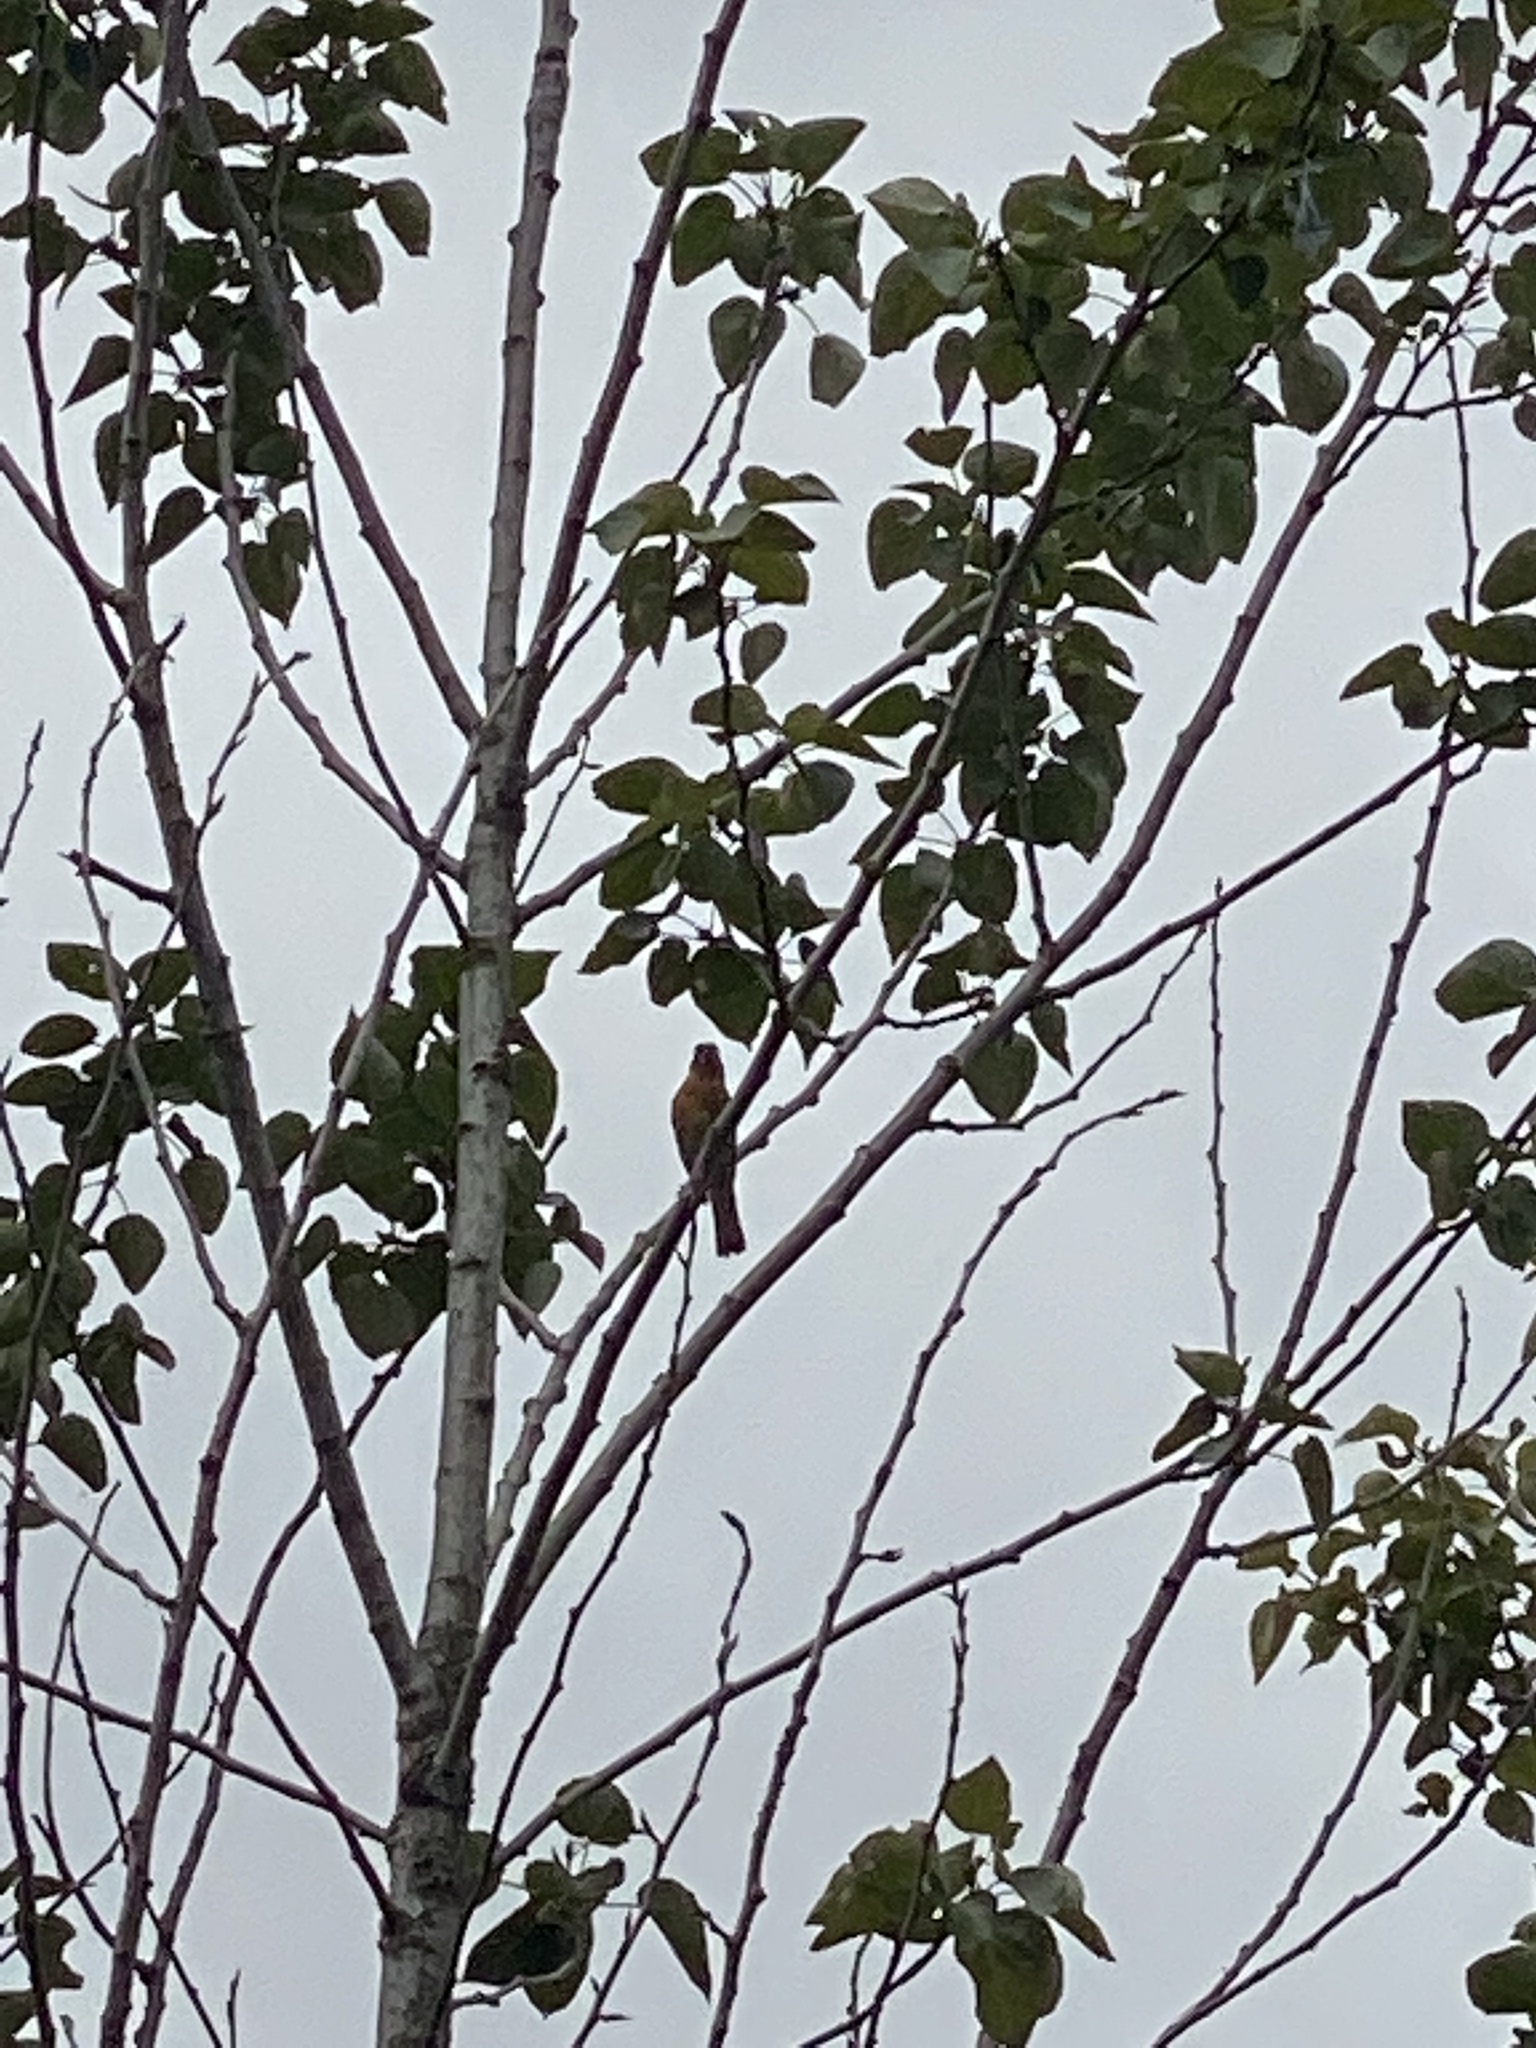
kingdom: Animalia
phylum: Chordata
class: Aves
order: Passeriformes
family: Cardinalidae
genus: Pheucticus
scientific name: Pheucticus melanocephalus
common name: Black-headed grosbeak
